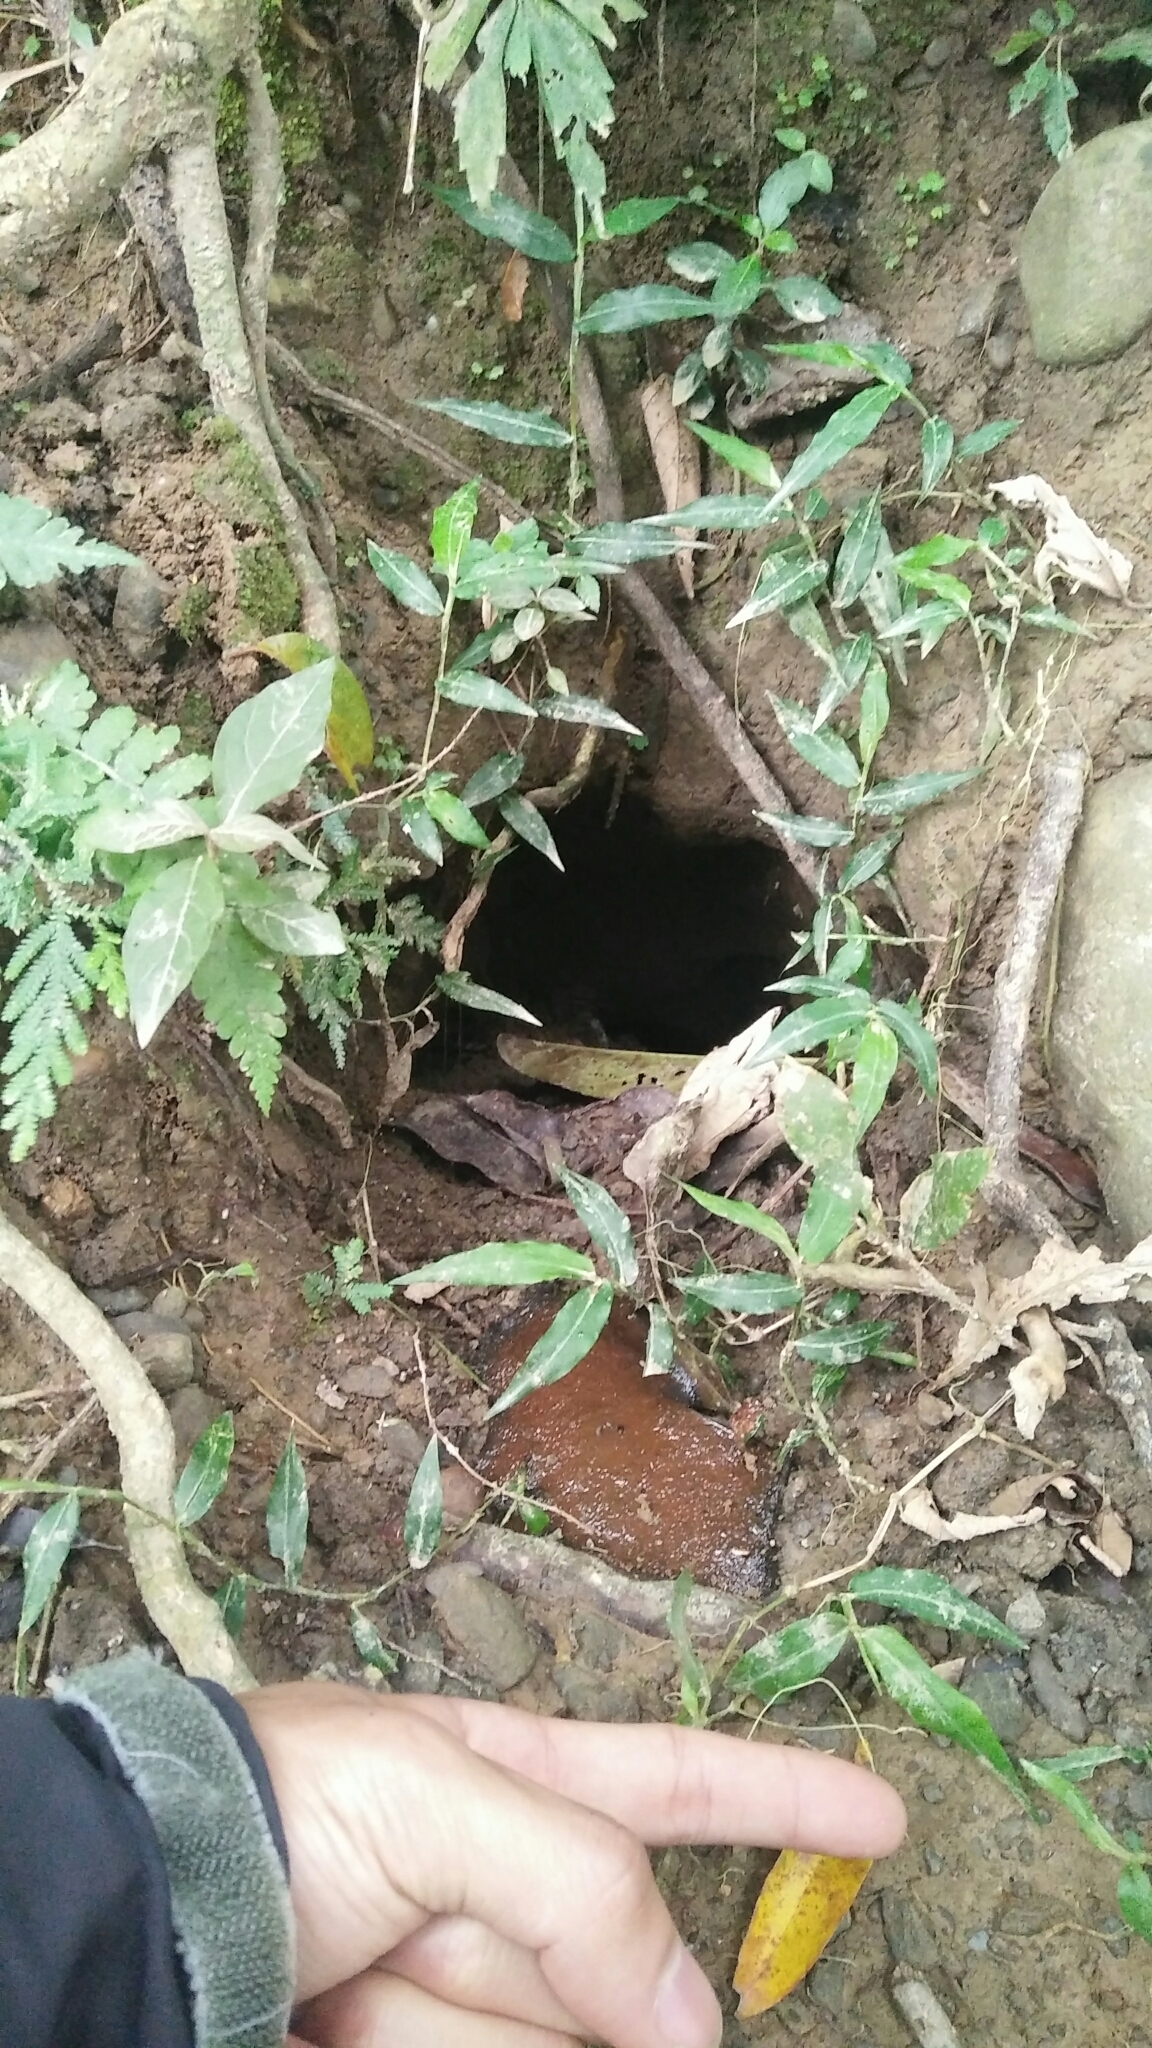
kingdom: Animalia
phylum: Chordata
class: Mammalia
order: Pholidota
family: Manidae
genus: Manis
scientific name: Manis pentadactyla
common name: Chinese pangolin
